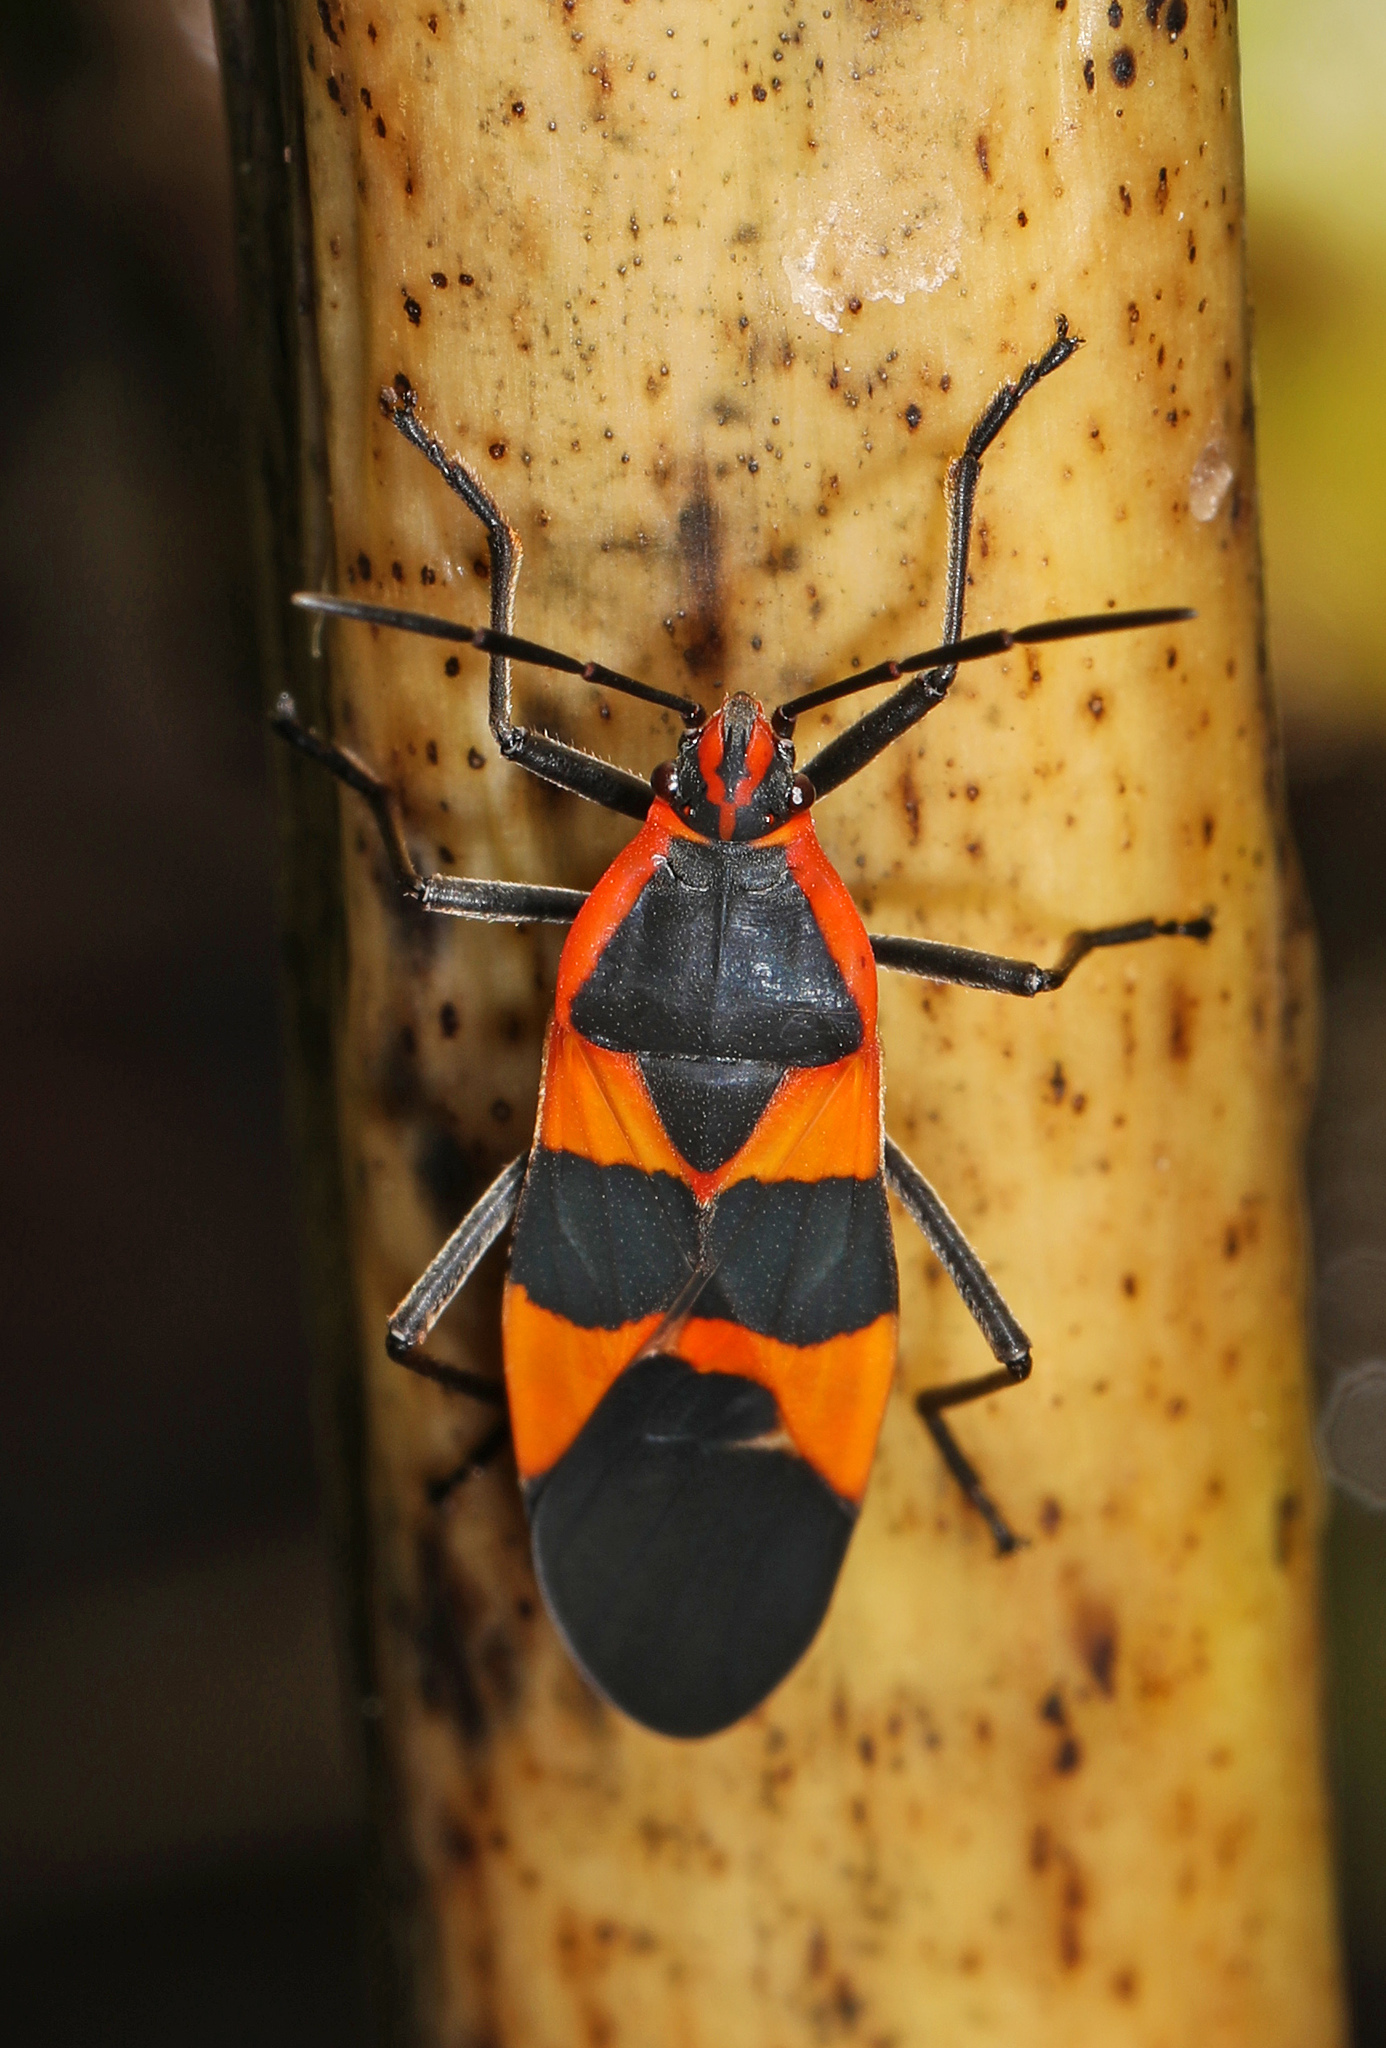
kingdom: Animalia
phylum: Arthropoda
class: Insecta
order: Hemiptera
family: Lygaeidae
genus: Oncopeltus
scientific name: Oncopeltus fasciatus
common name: Large milkweed bug
